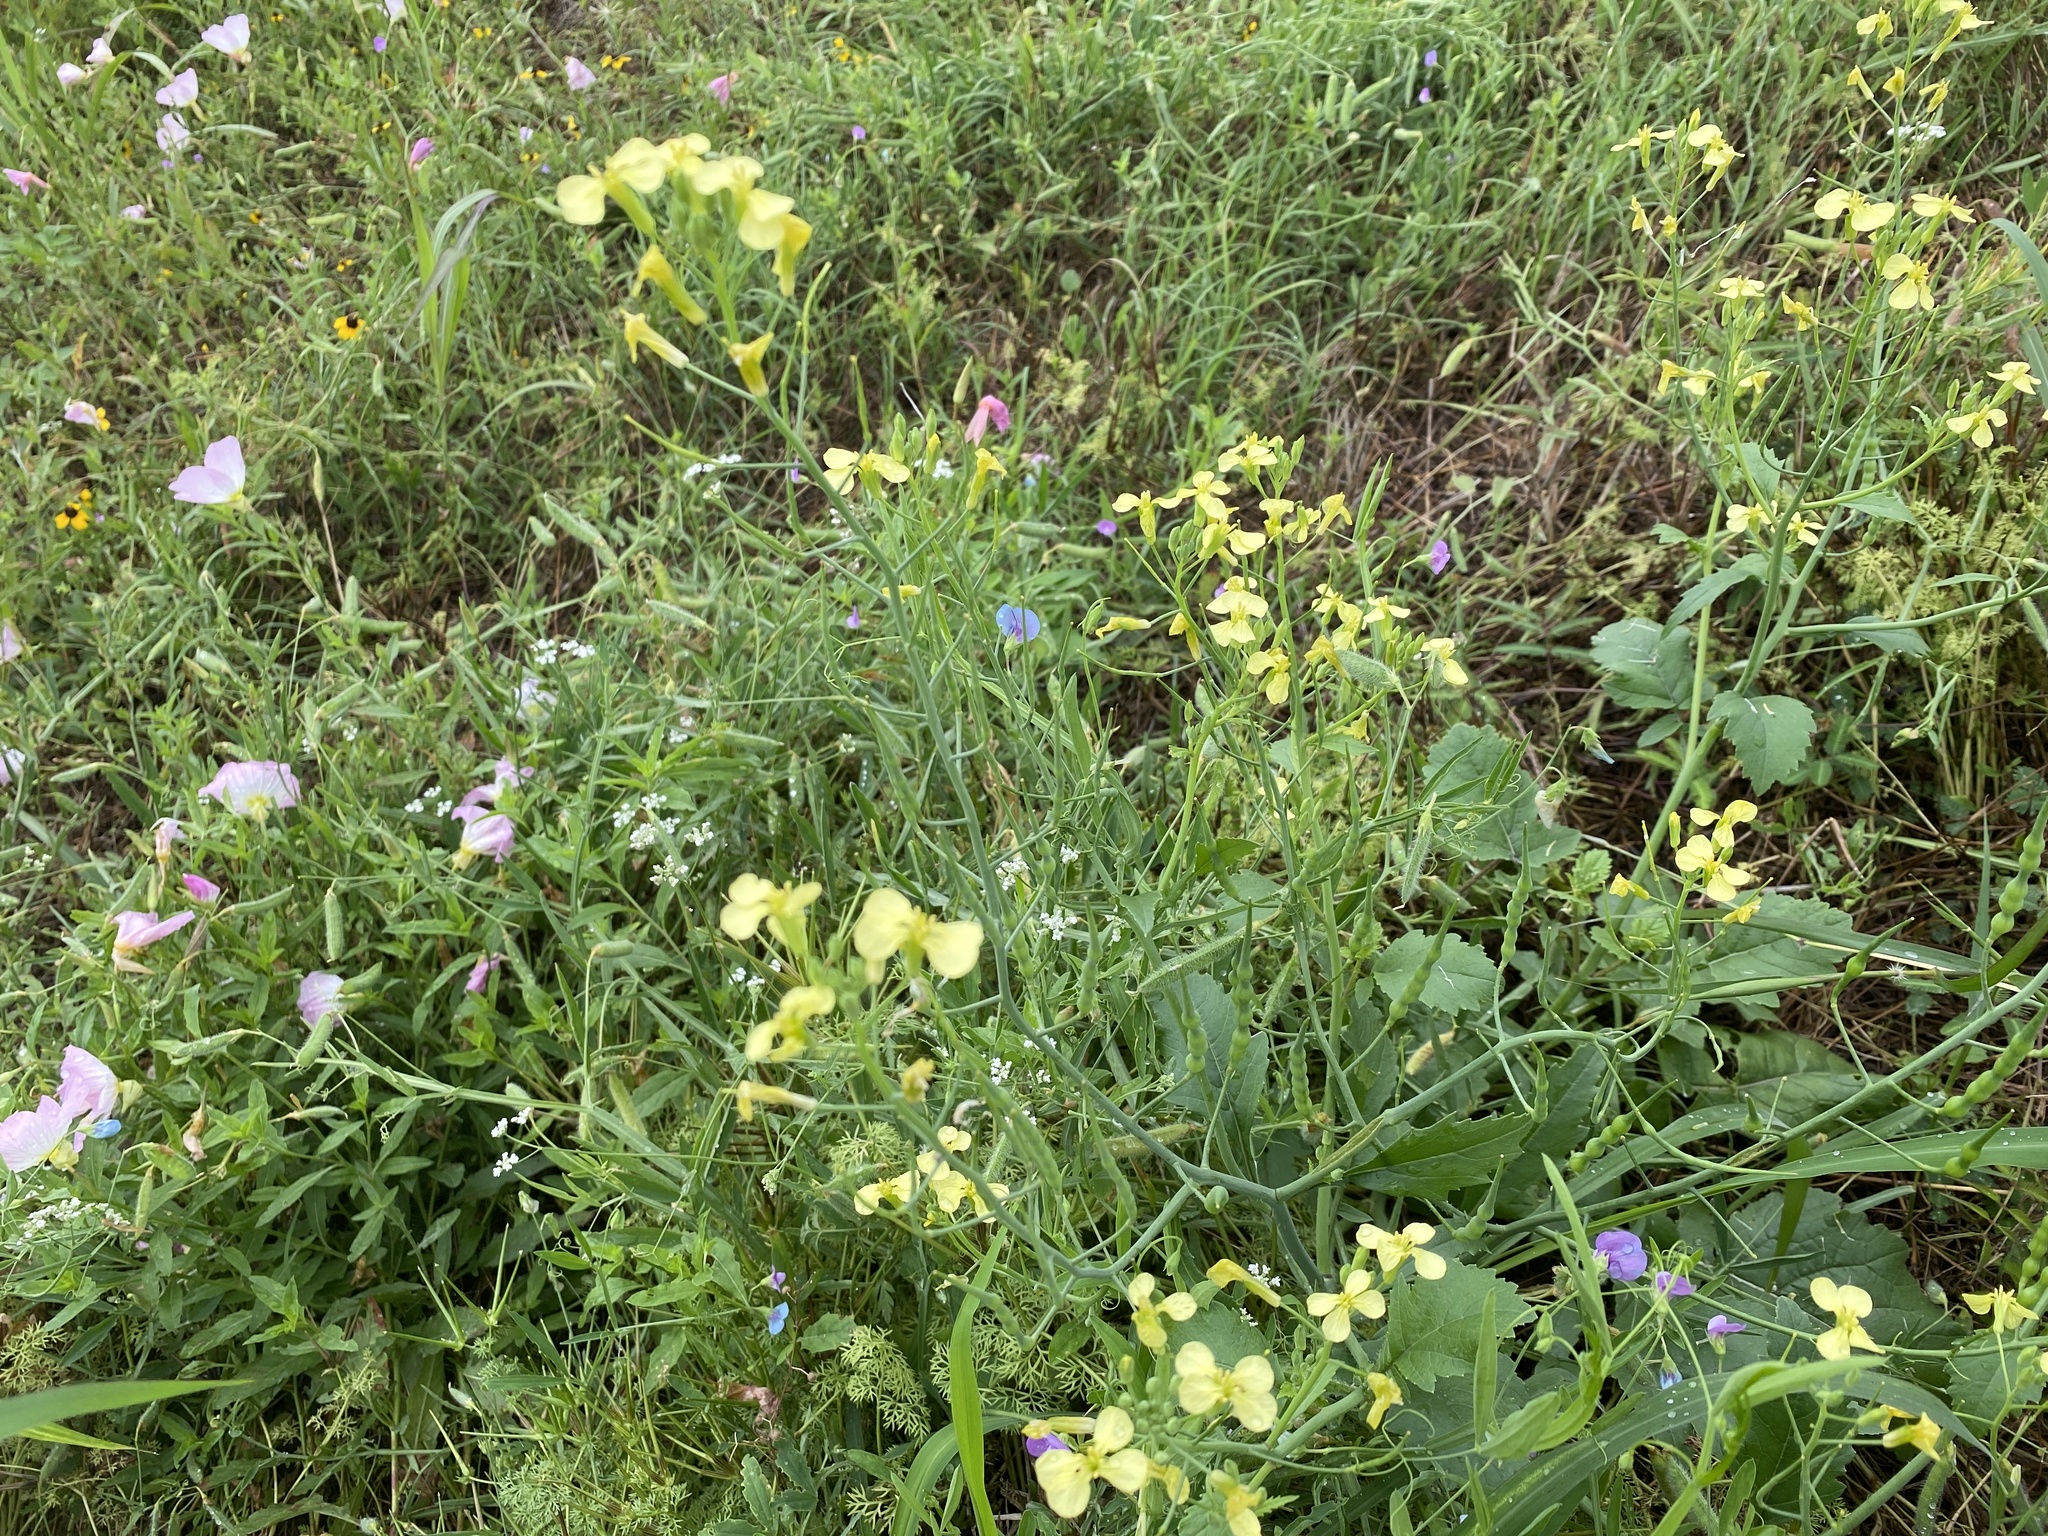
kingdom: Plantae
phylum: Tracheophyta
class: Magnoliopsida
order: Brassicales
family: Brassicaceae
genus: Raphanus
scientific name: Raphanus raphanistrum
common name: Wild radish
